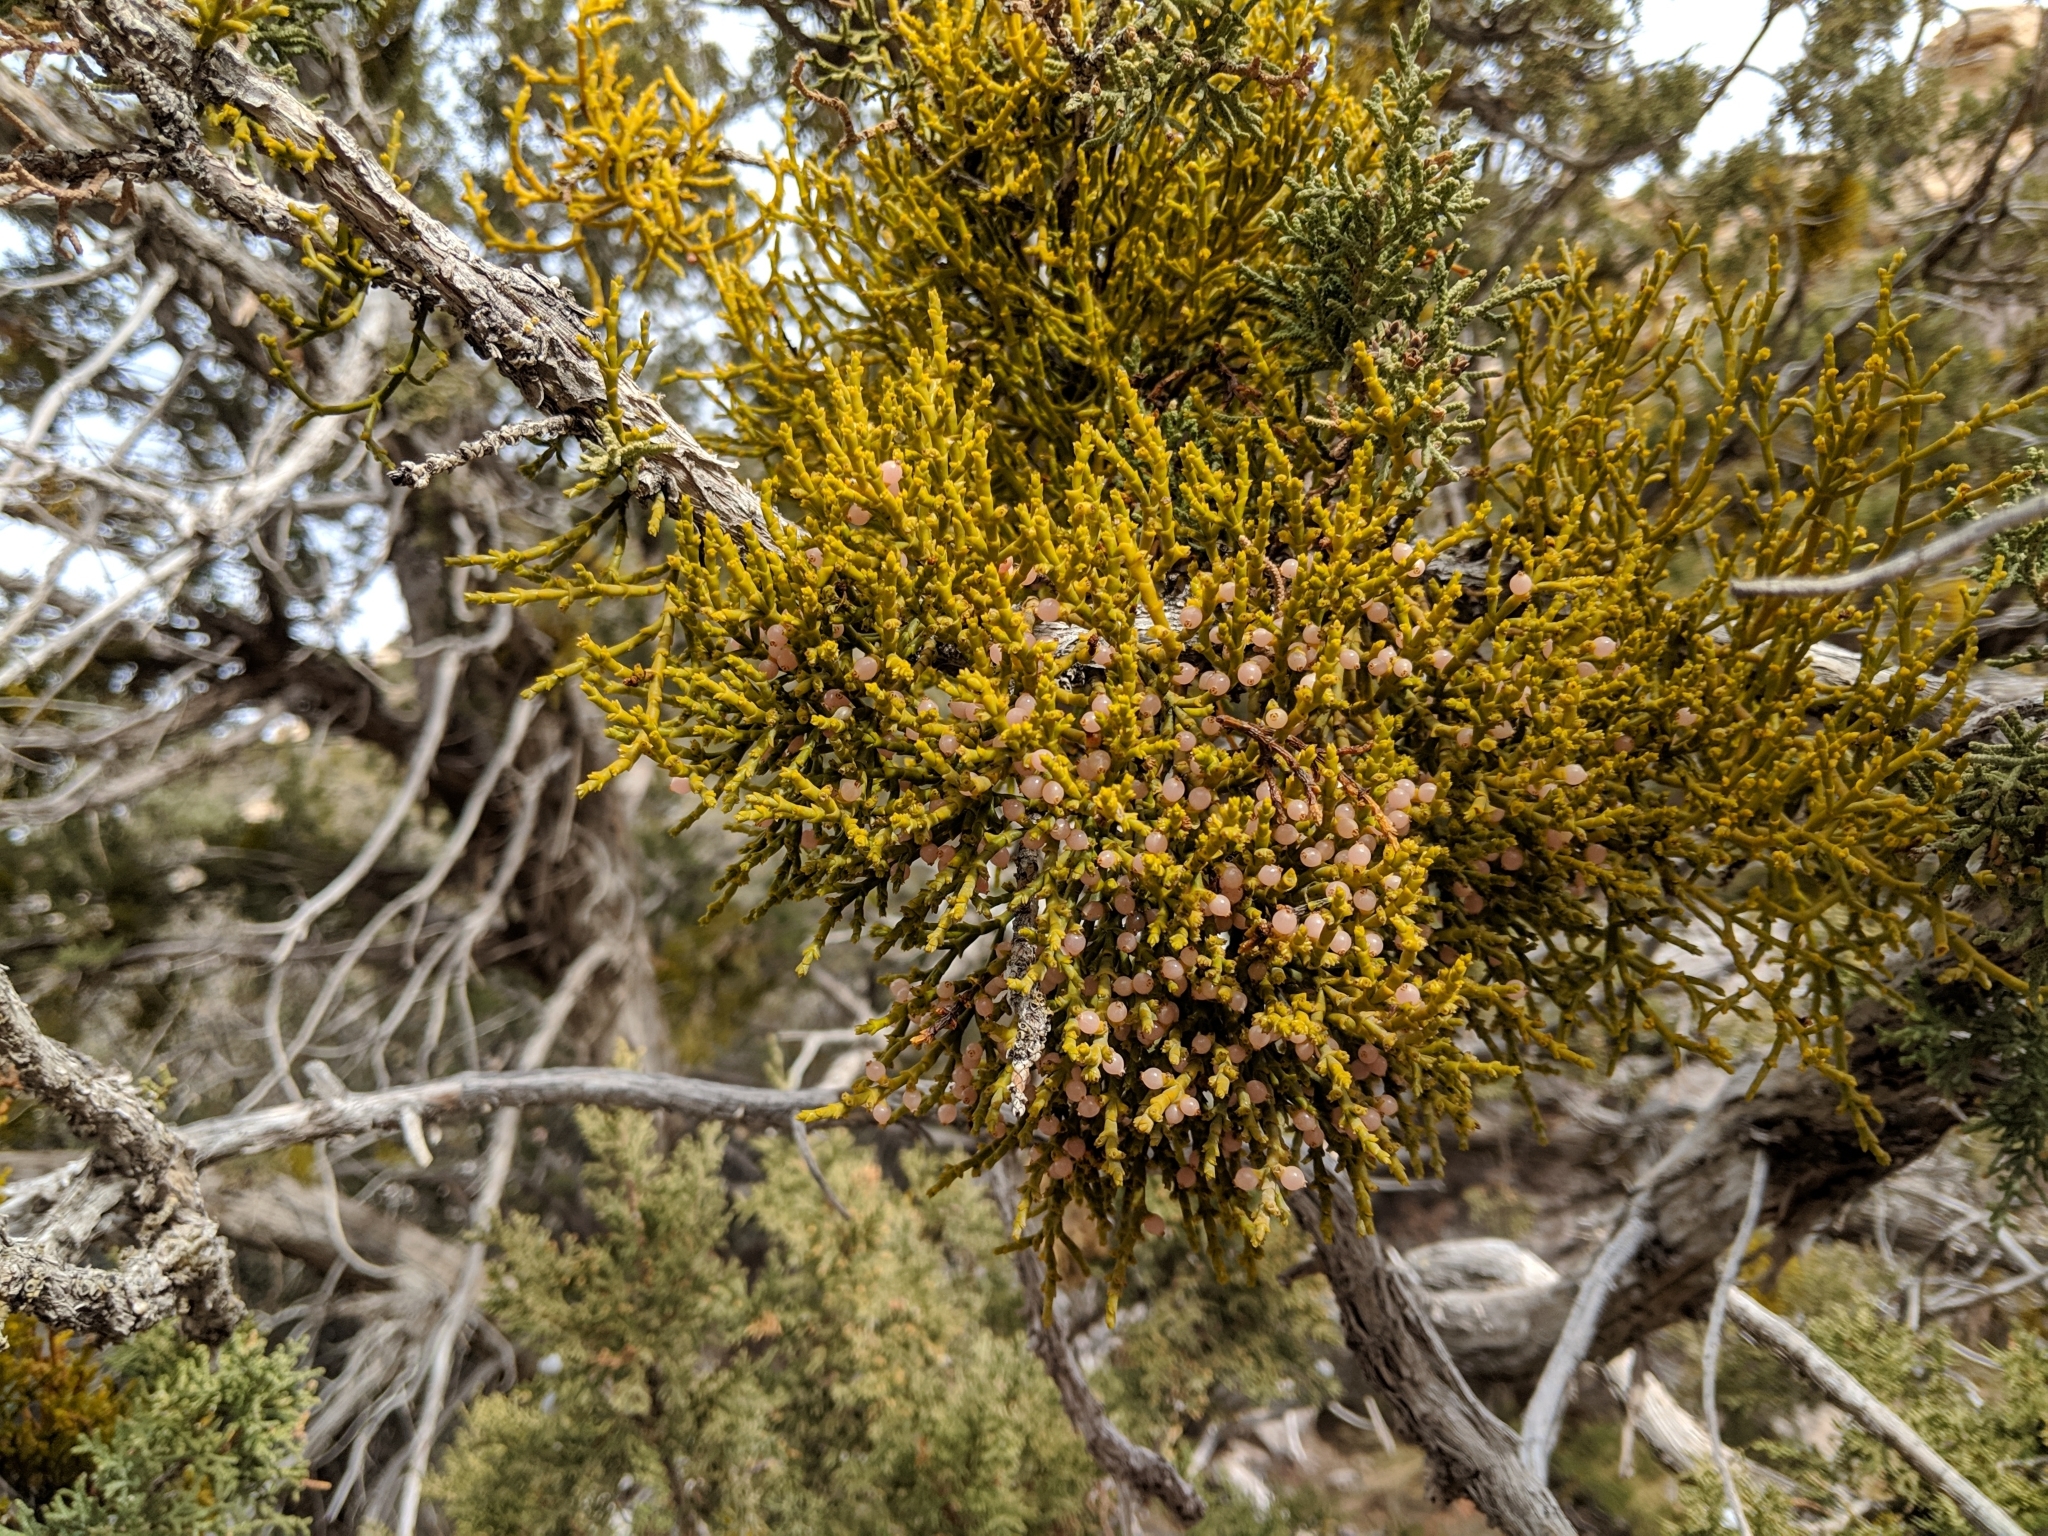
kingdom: Plantae
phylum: Tracheophyta
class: Magnoliopsida
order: Santalales
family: Viscaceae
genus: Phoradendron
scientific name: Phoradendron juniperinum
